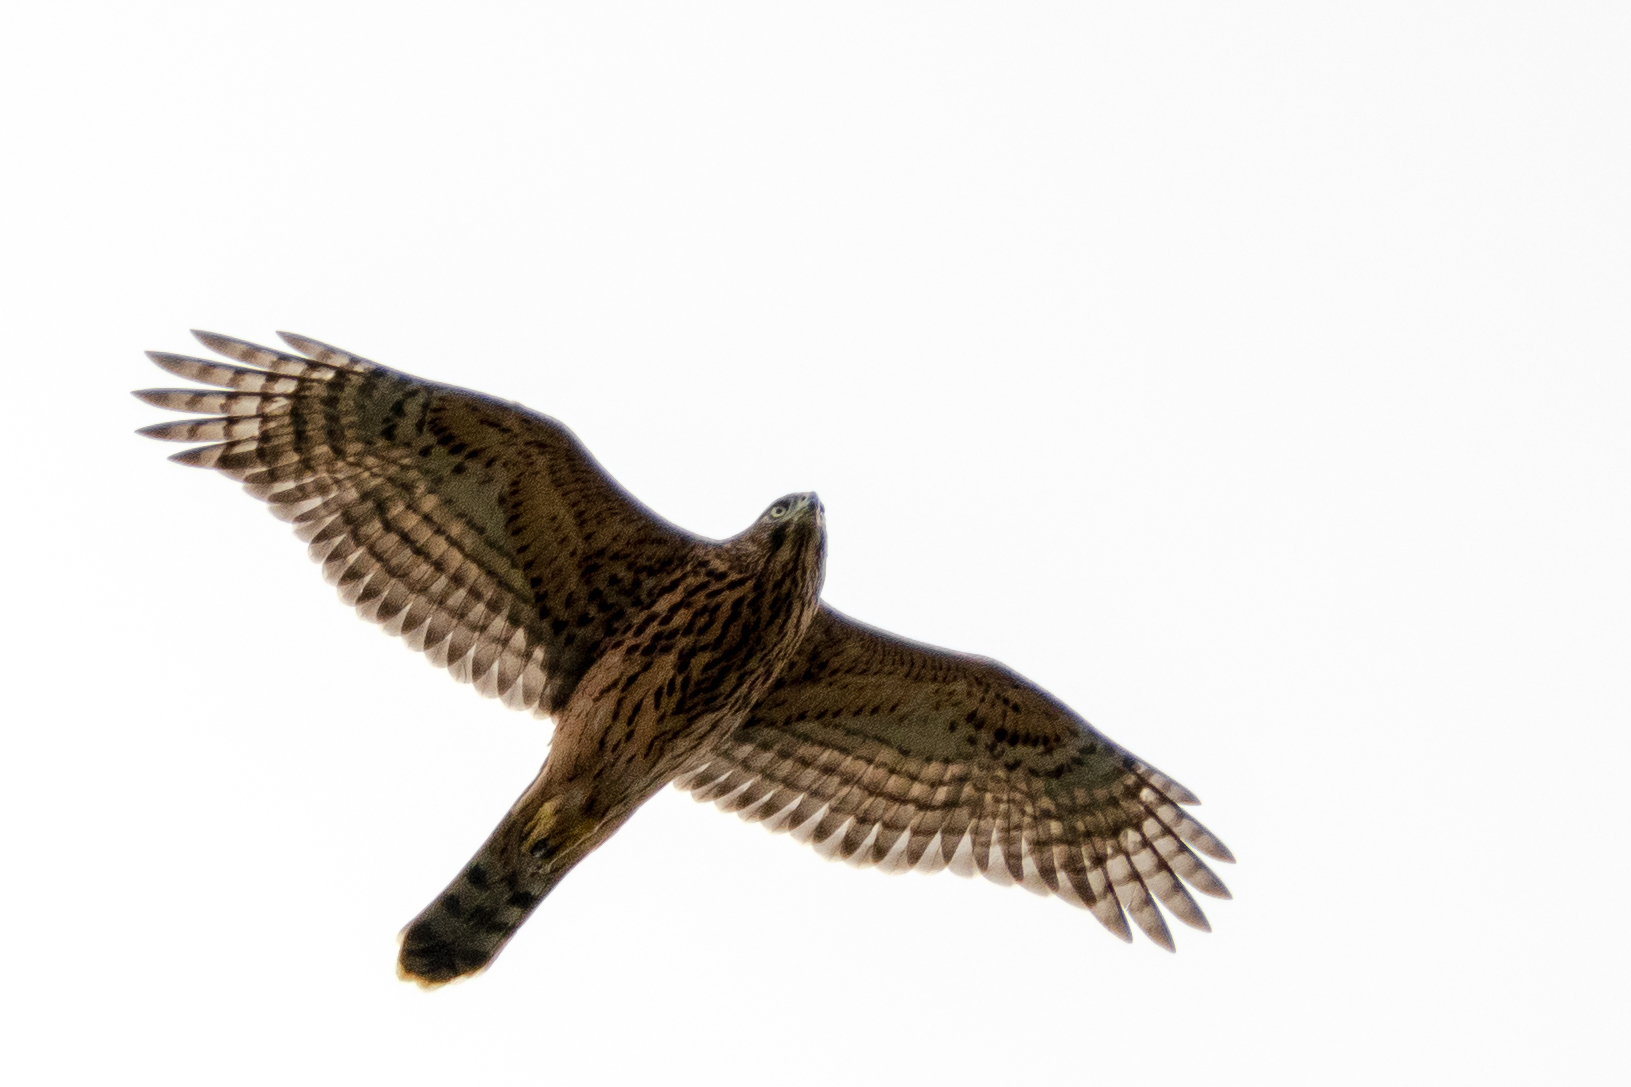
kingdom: Animalia
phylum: Chordata
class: Aves
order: Accipitriformes
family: Accipitridae
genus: Accipiter
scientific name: Accipiter gentilis
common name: Northern goshawk
